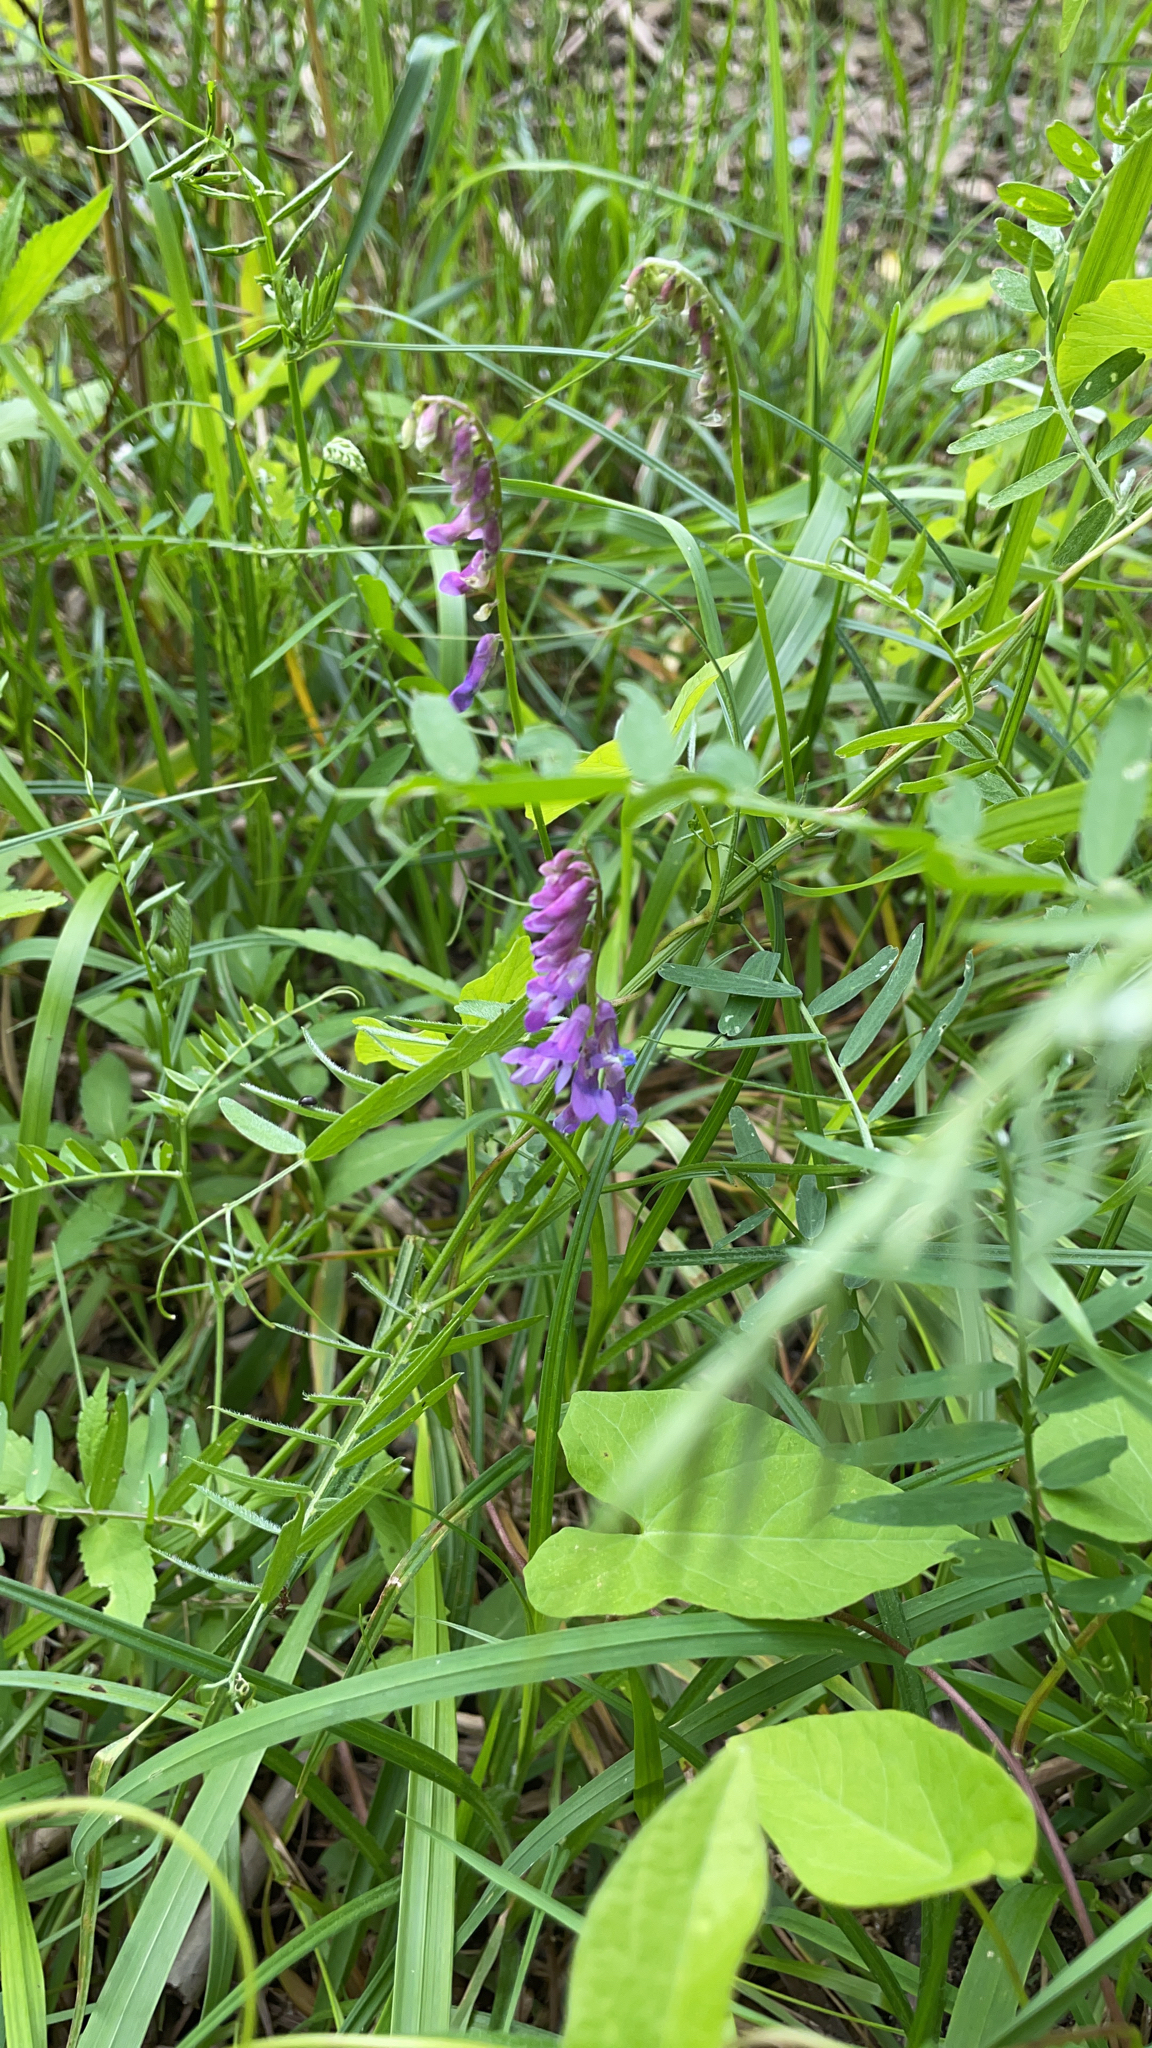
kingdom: Plantae
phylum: Tracheophyta
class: Magnoliopsida
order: Fabales
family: Fabaceae
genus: Vicia
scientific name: Vicia cracca
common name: Bird vetch
